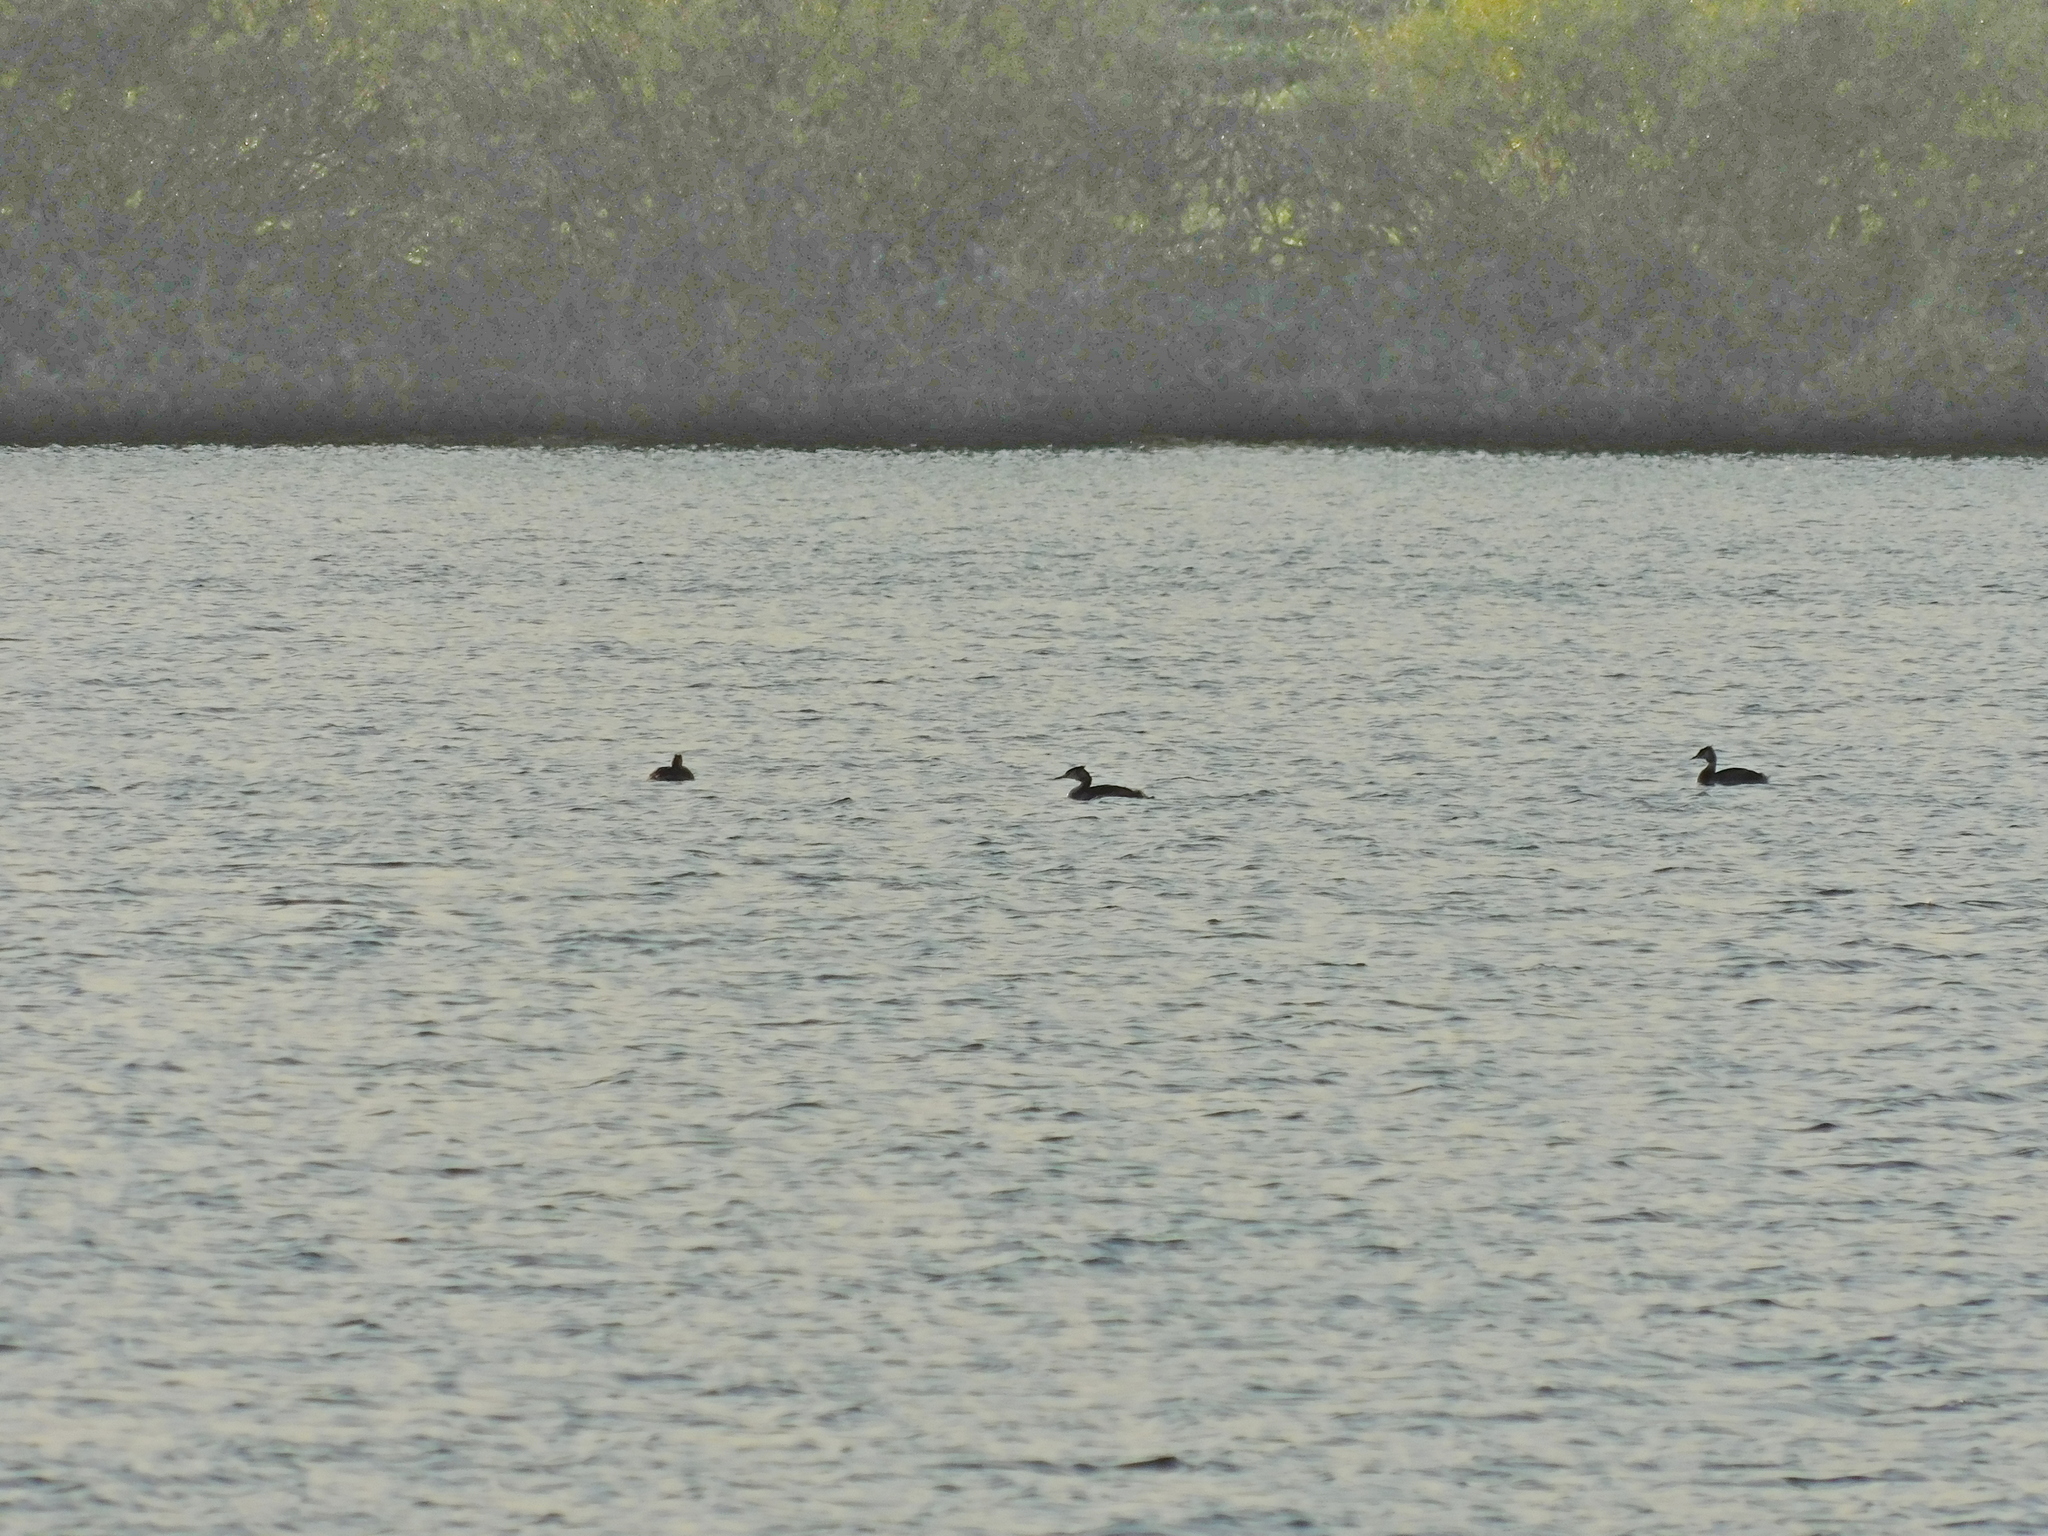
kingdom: Animalia
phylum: Chordata
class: Aves
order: Podicipediformes
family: Podicipedidae
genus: Podiceps
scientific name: Podiceps cristatus
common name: Great crested grebe
